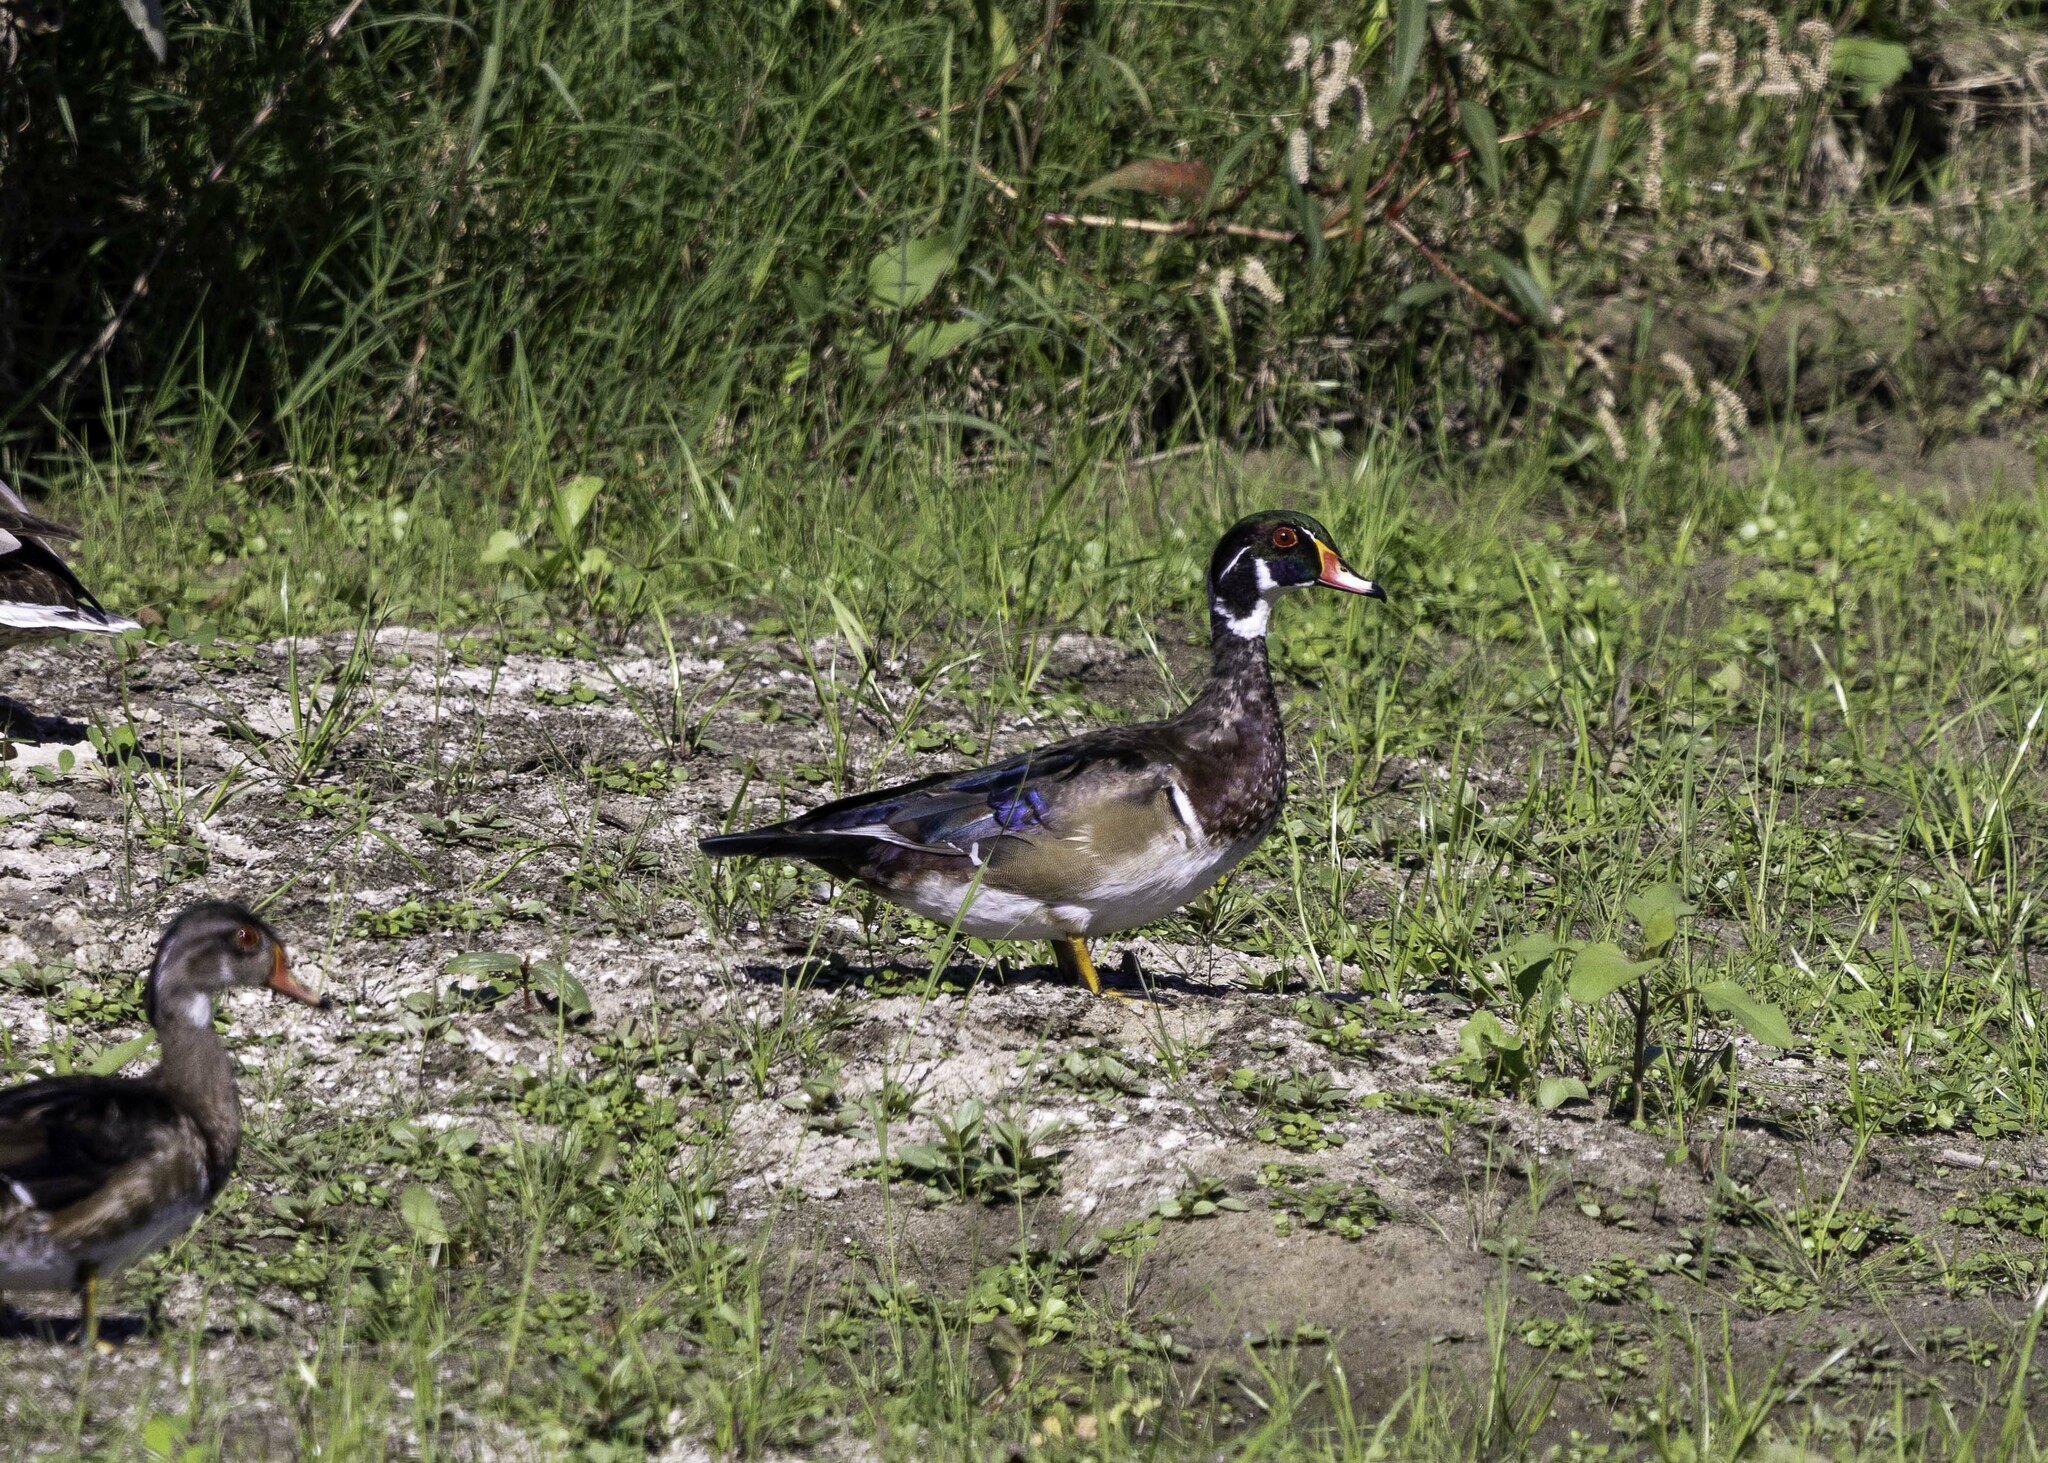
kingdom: Animalia
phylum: Chordata
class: Aves
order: Anseriformes
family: Anatidae
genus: Aix
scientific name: Aix sponsa
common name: Wood duck
